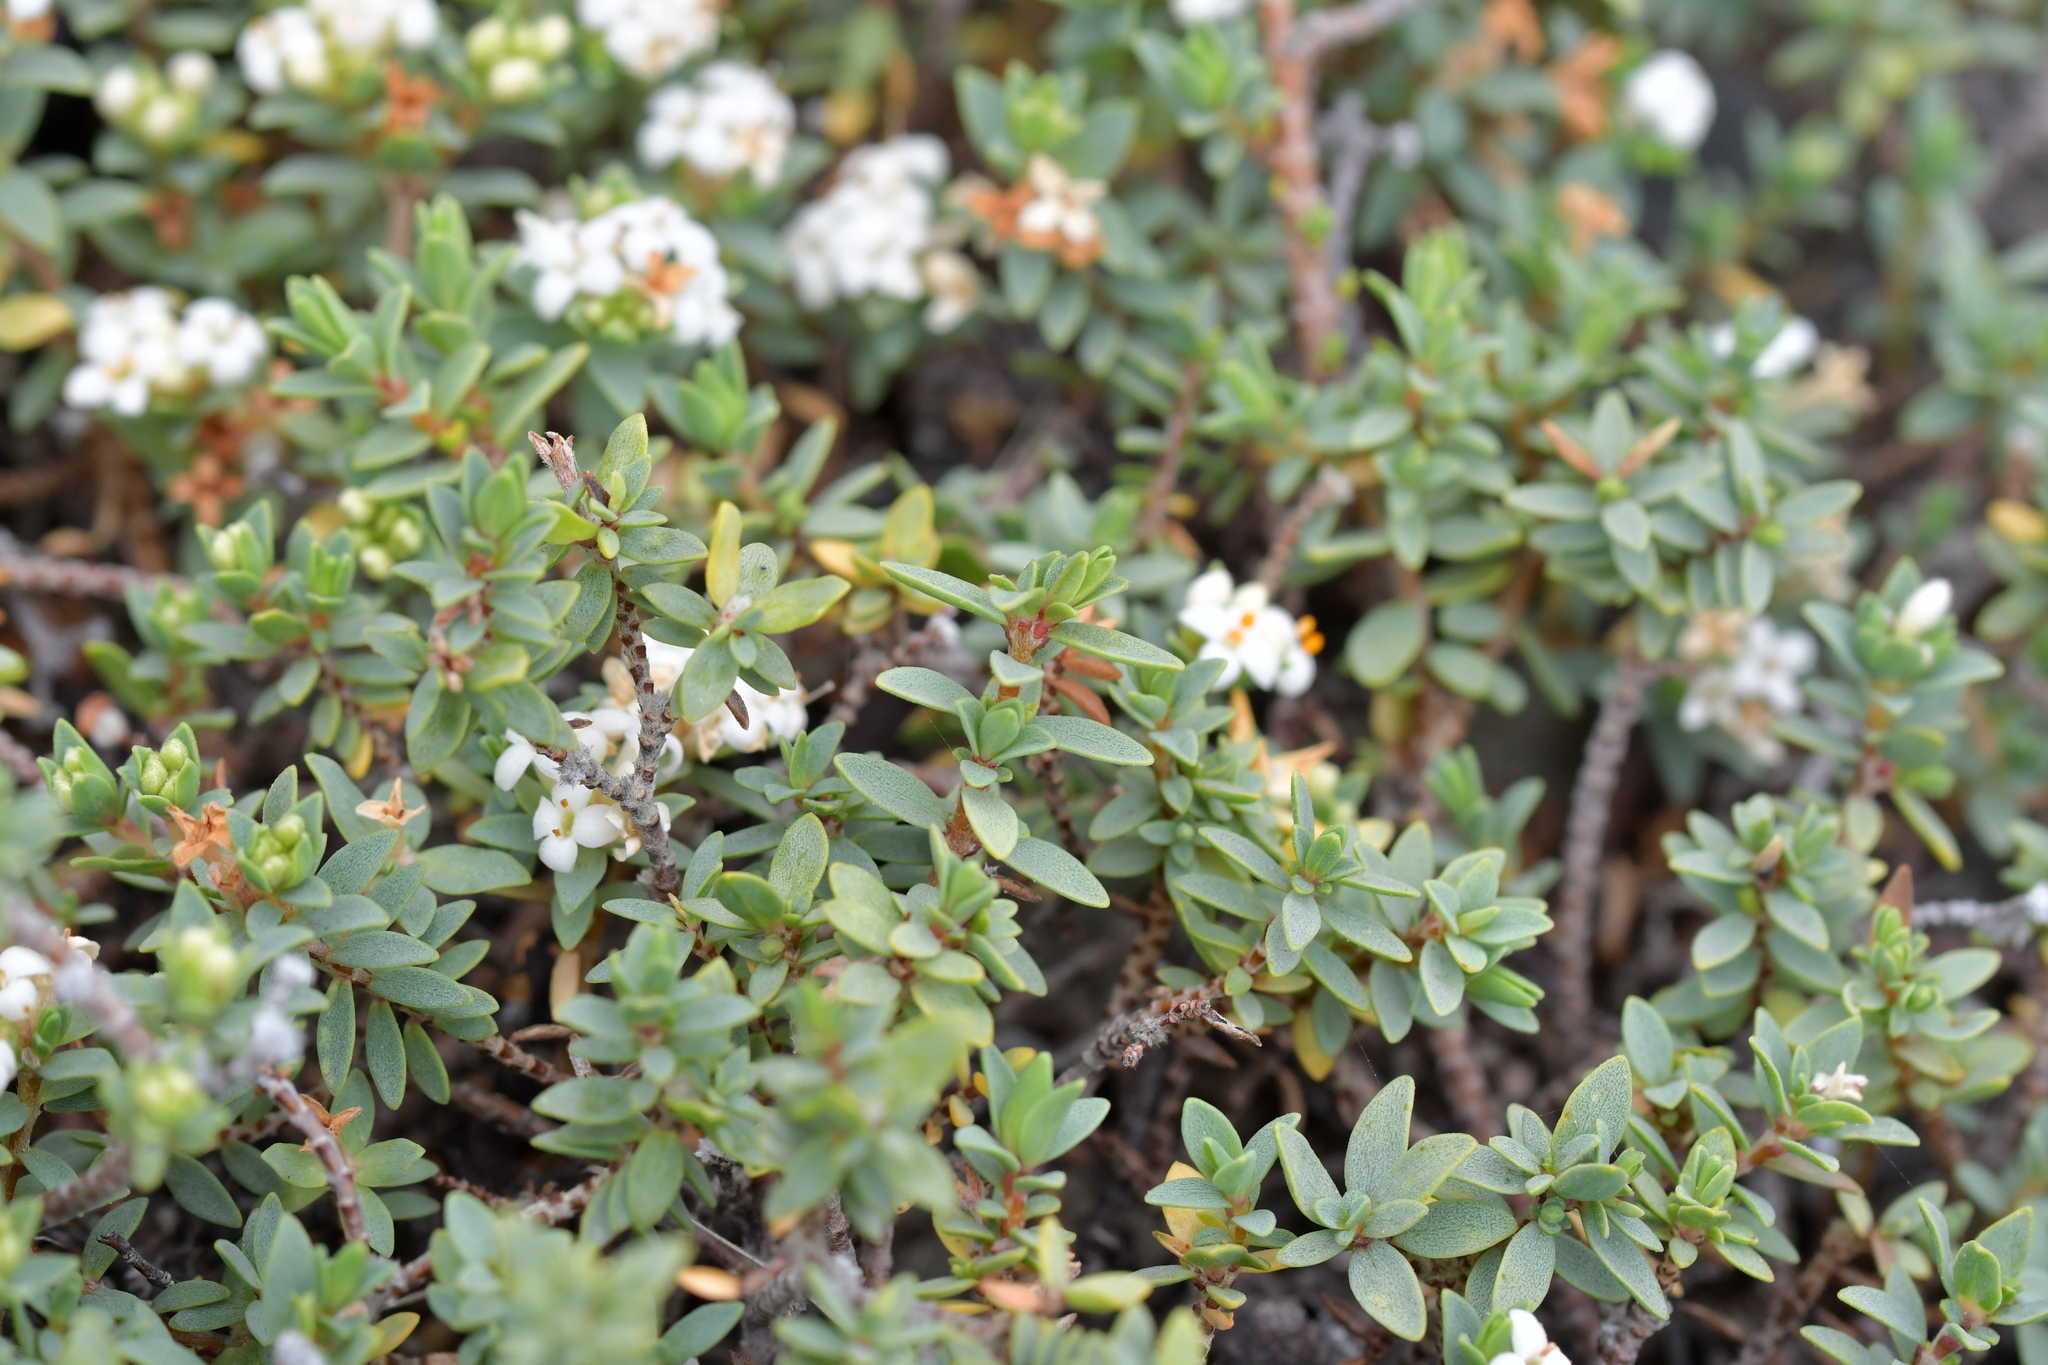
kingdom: Plantae
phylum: Tracheophyta
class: Magnoliopsida
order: Malvales
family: Thymelaeaceae
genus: Pimelea
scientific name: Pimelea prostrata
